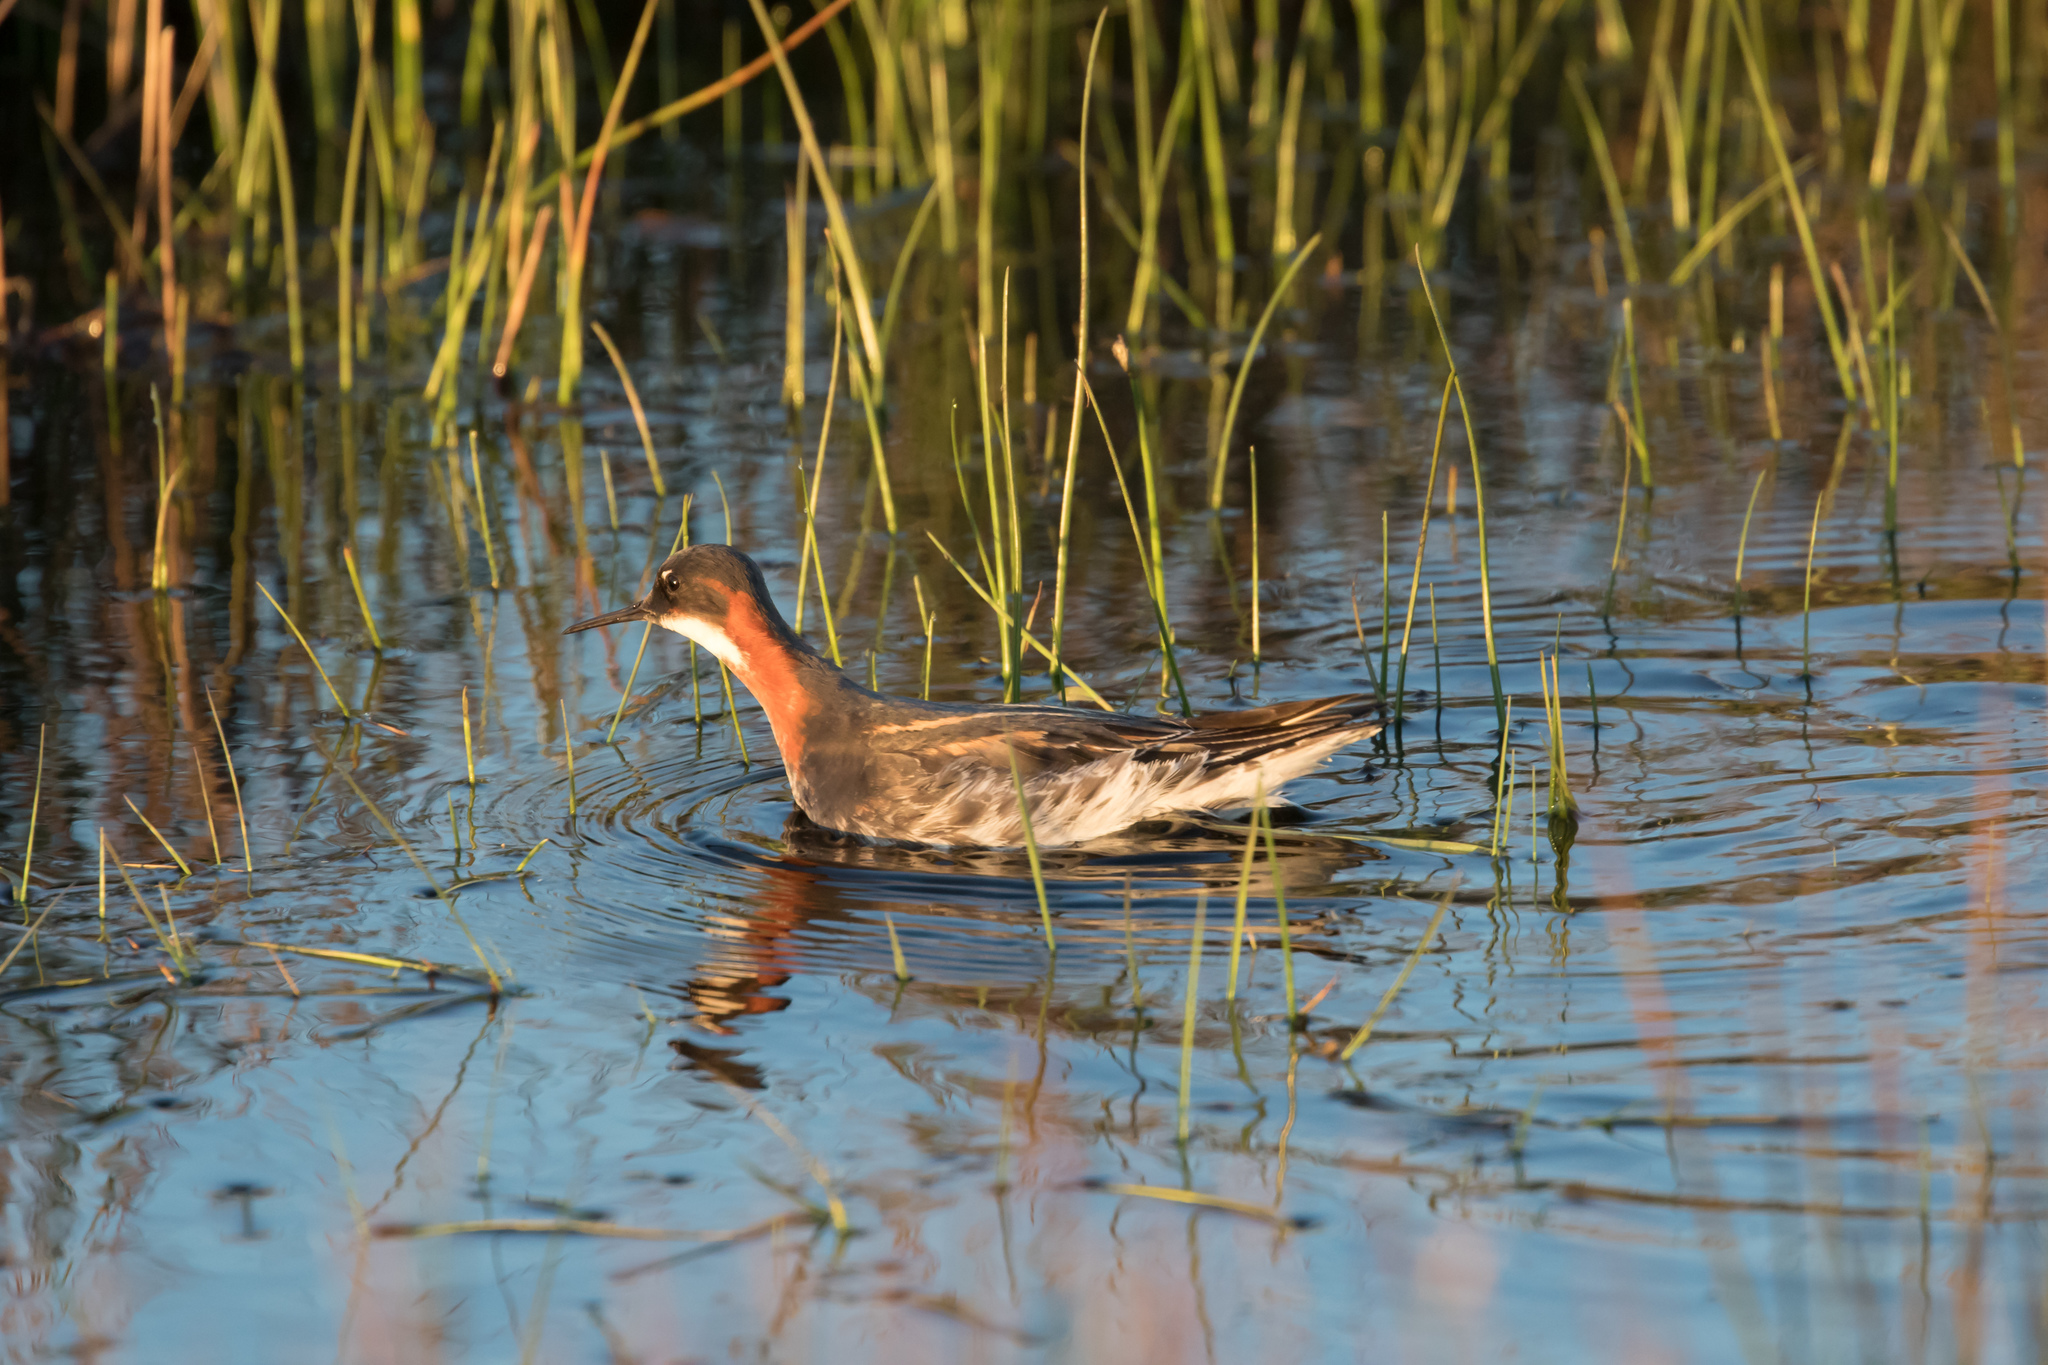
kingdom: Animalia
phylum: Chordata
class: Aves
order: Charadriiformes
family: Scolopacidae
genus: Phalaropus
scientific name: Phalaropus lobatus
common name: Red-necked phalarope
